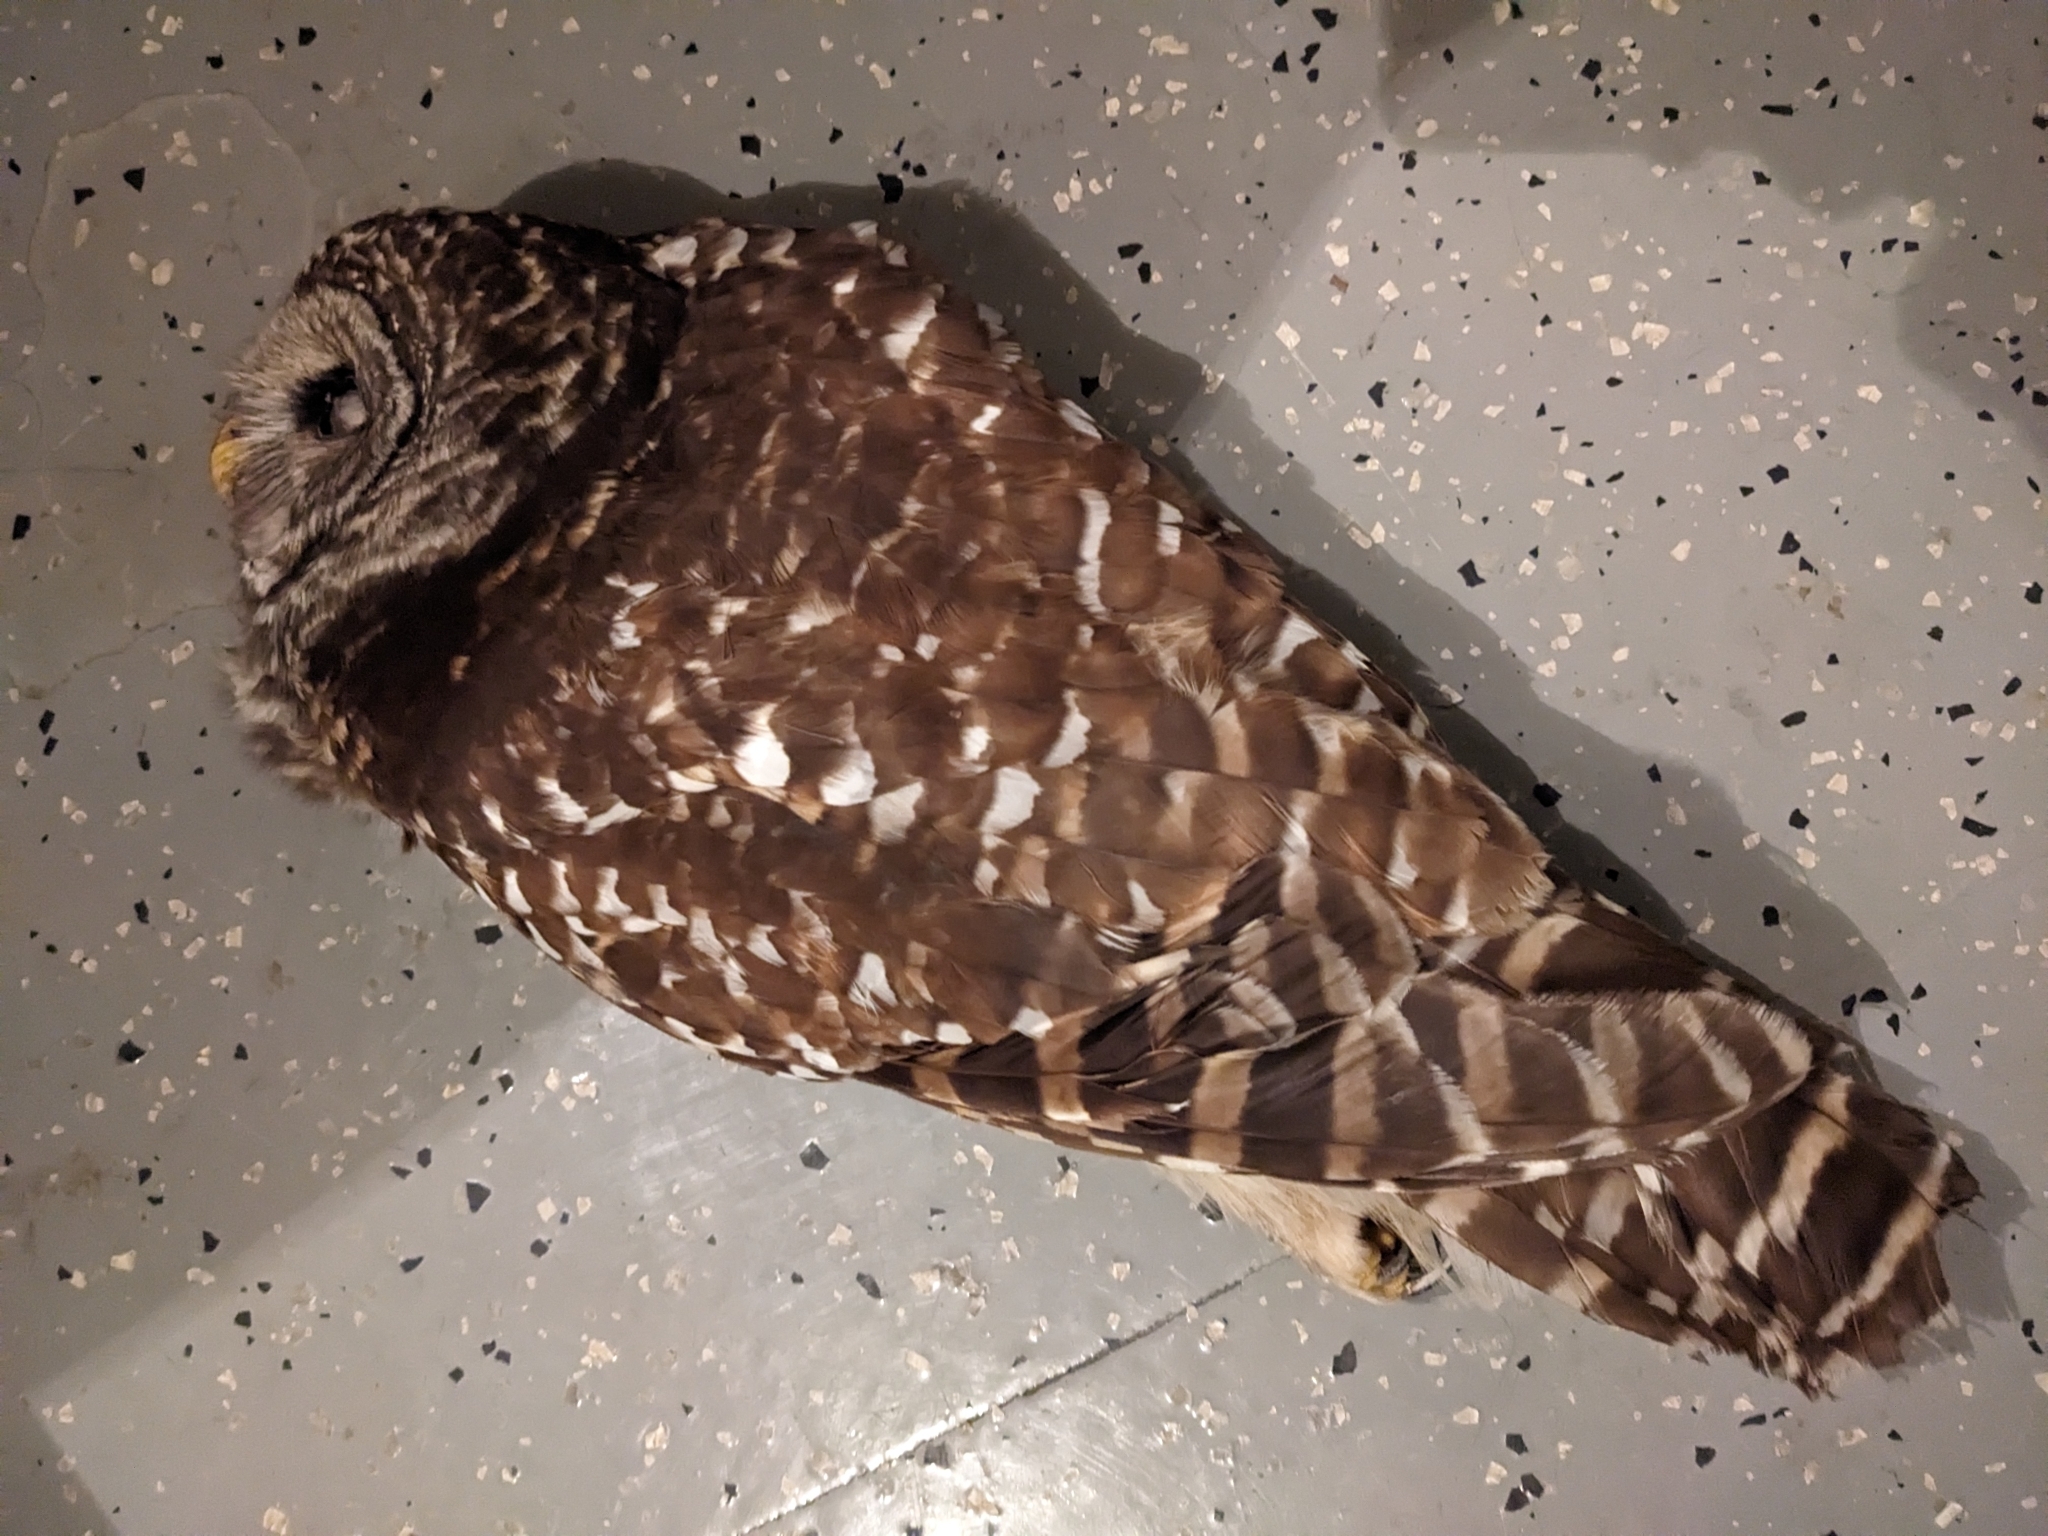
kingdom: Animalia
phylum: Chordata
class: Aves
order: Strigiformes
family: Strigidae
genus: Strix
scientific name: Strix varia
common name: Barred owl
